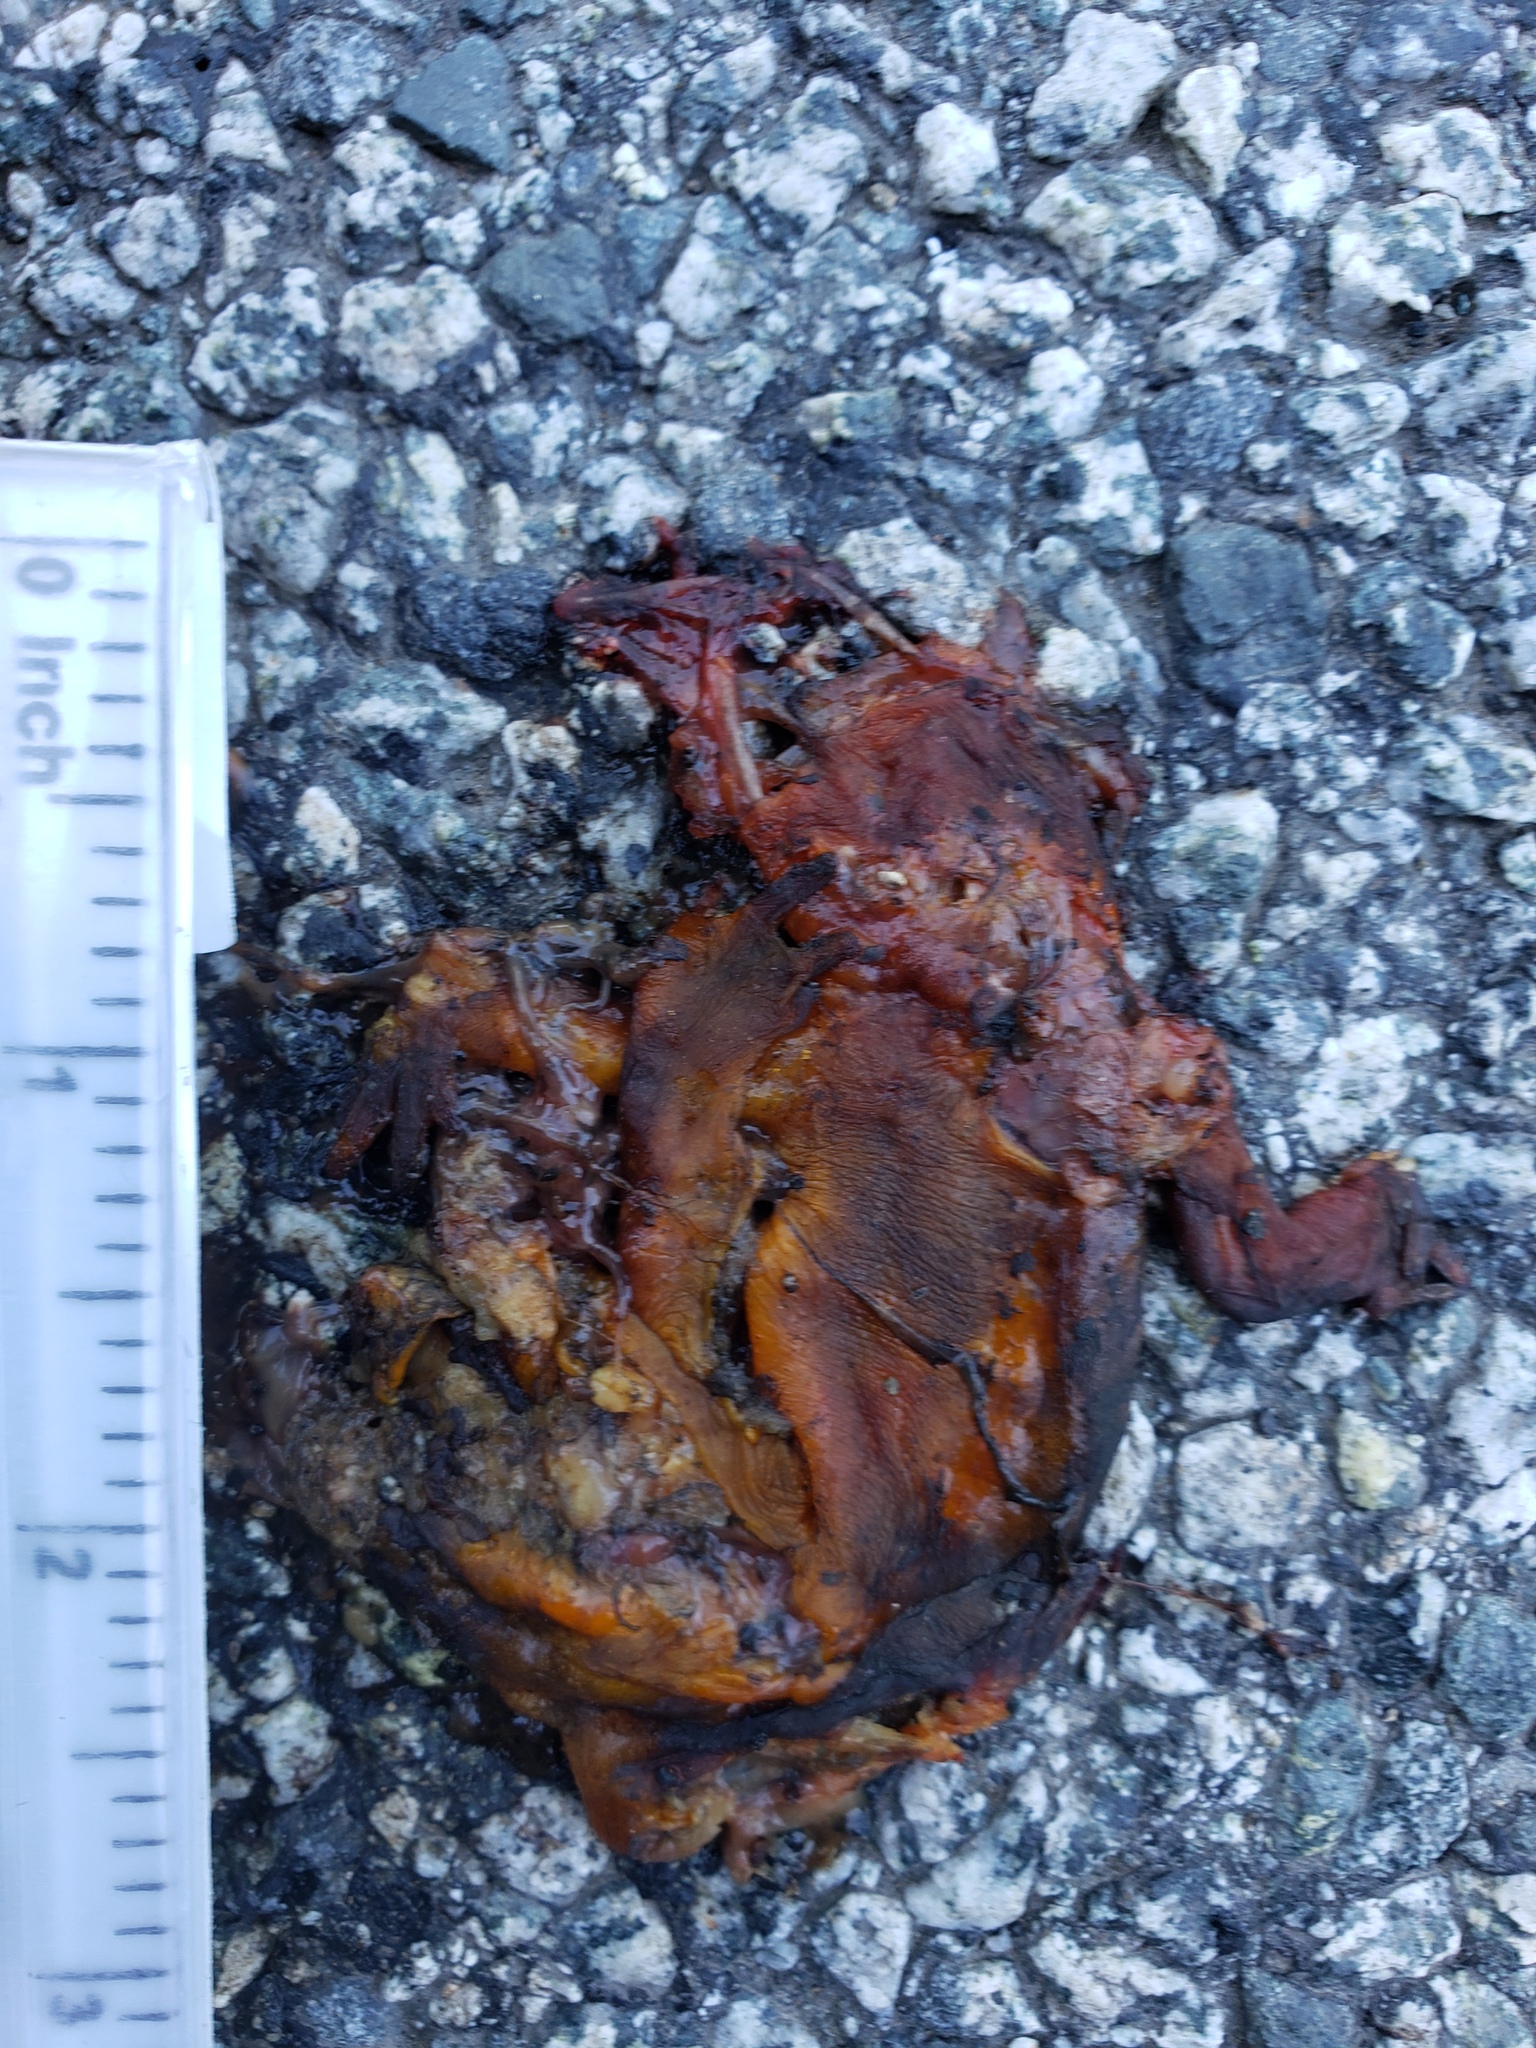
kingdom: Animalia
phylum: Chordata
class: Amphibia
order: Caudata
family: Salamandridae
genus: Taricha
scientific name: Taricha
